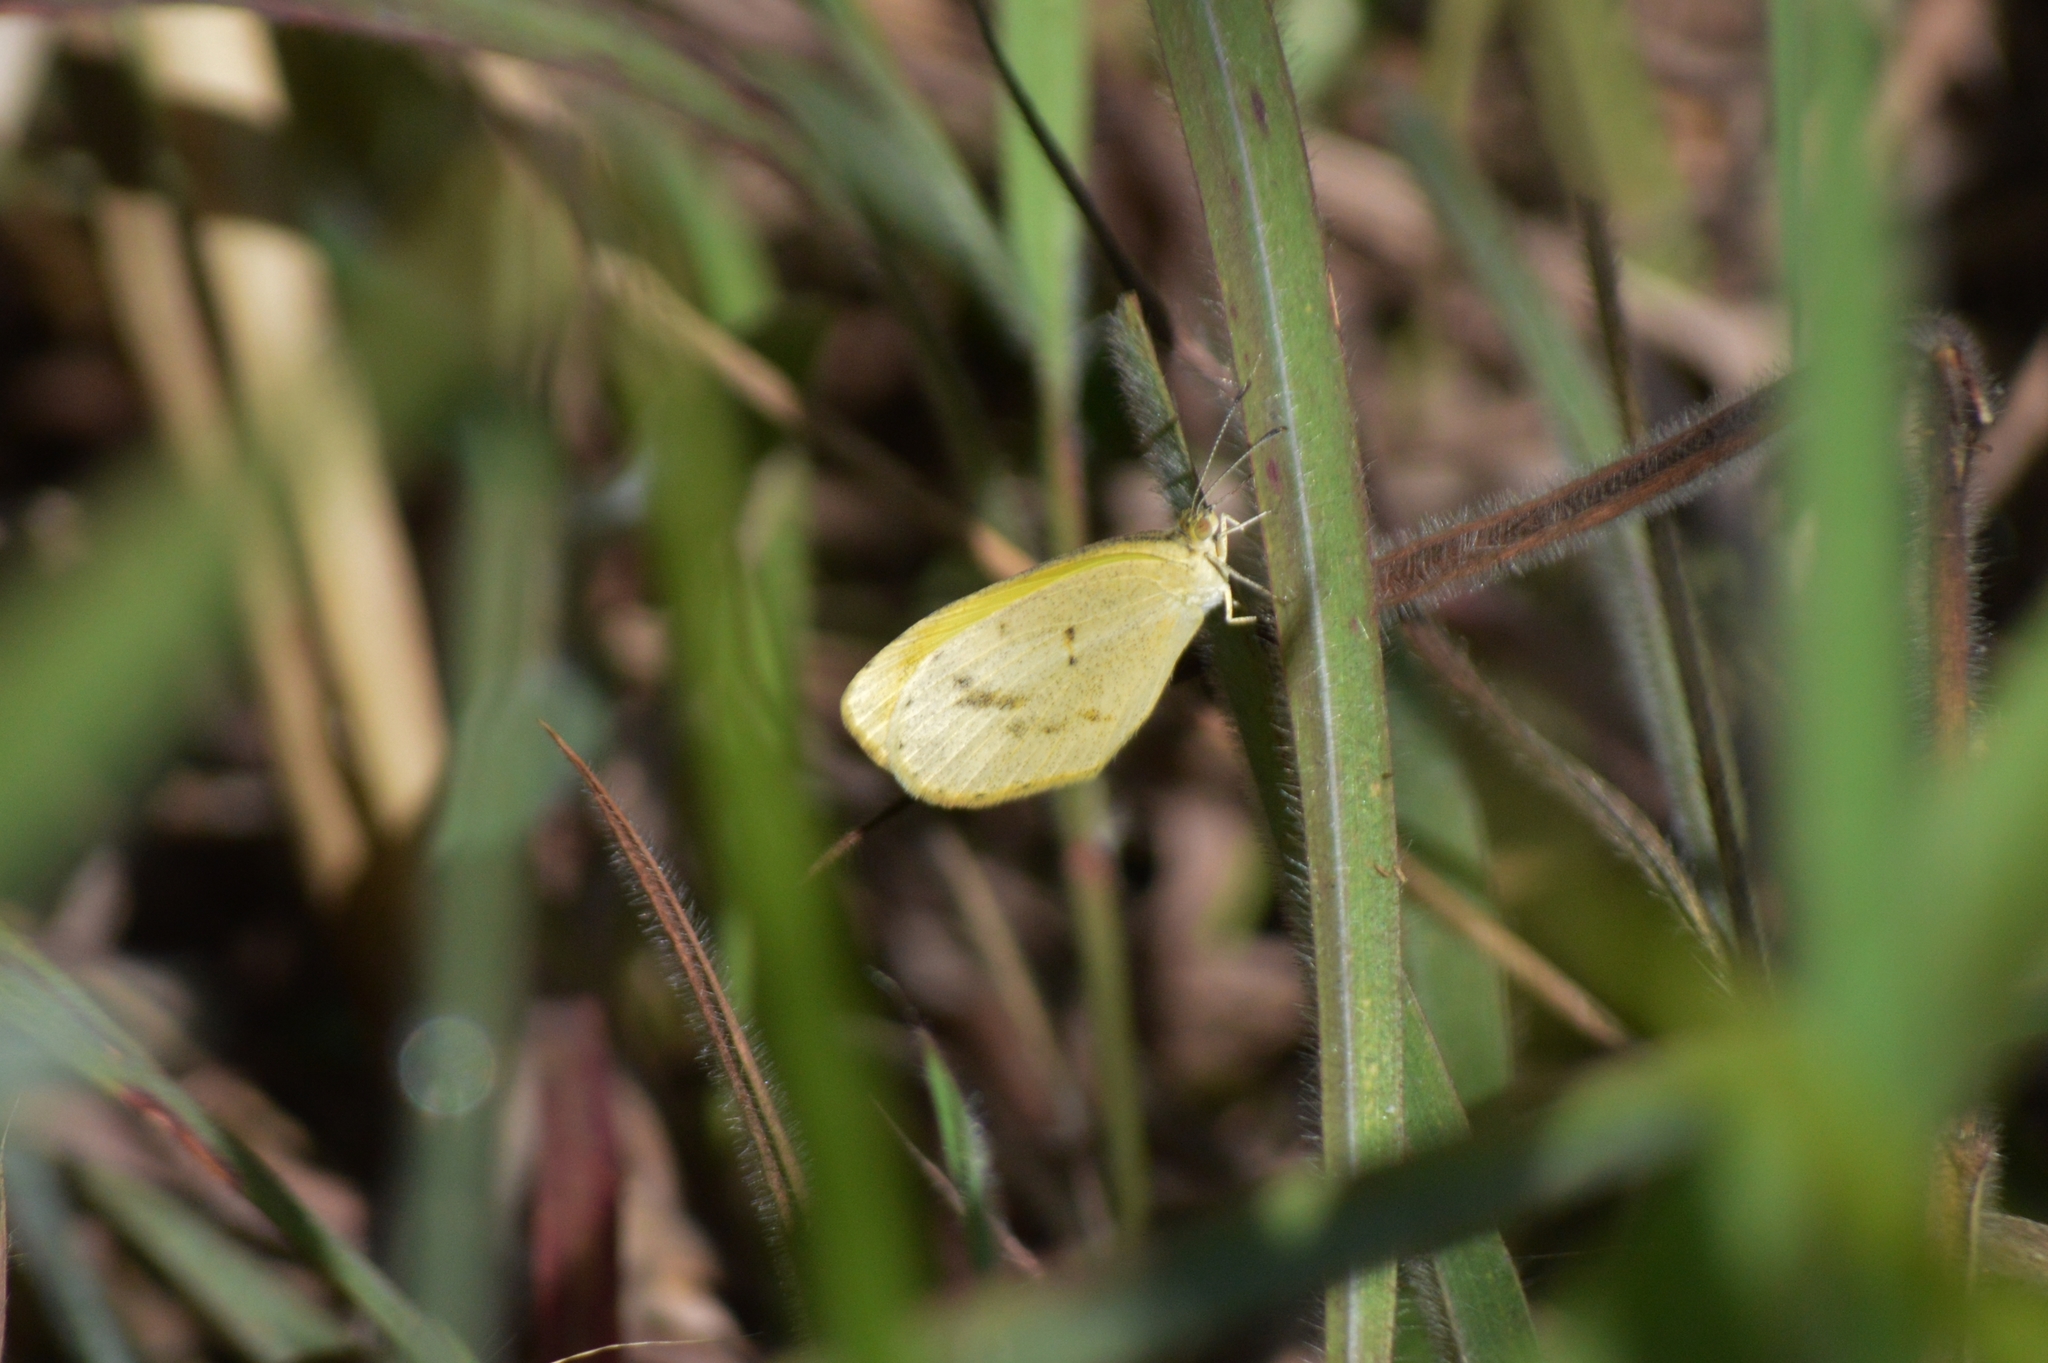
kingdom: Animalia
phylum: Arthropoda
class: Insecta
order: Lepidoptera
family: Pieridae
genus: Pyrisitia
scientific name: Pyrisitia nise
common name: Mimosa yellow
